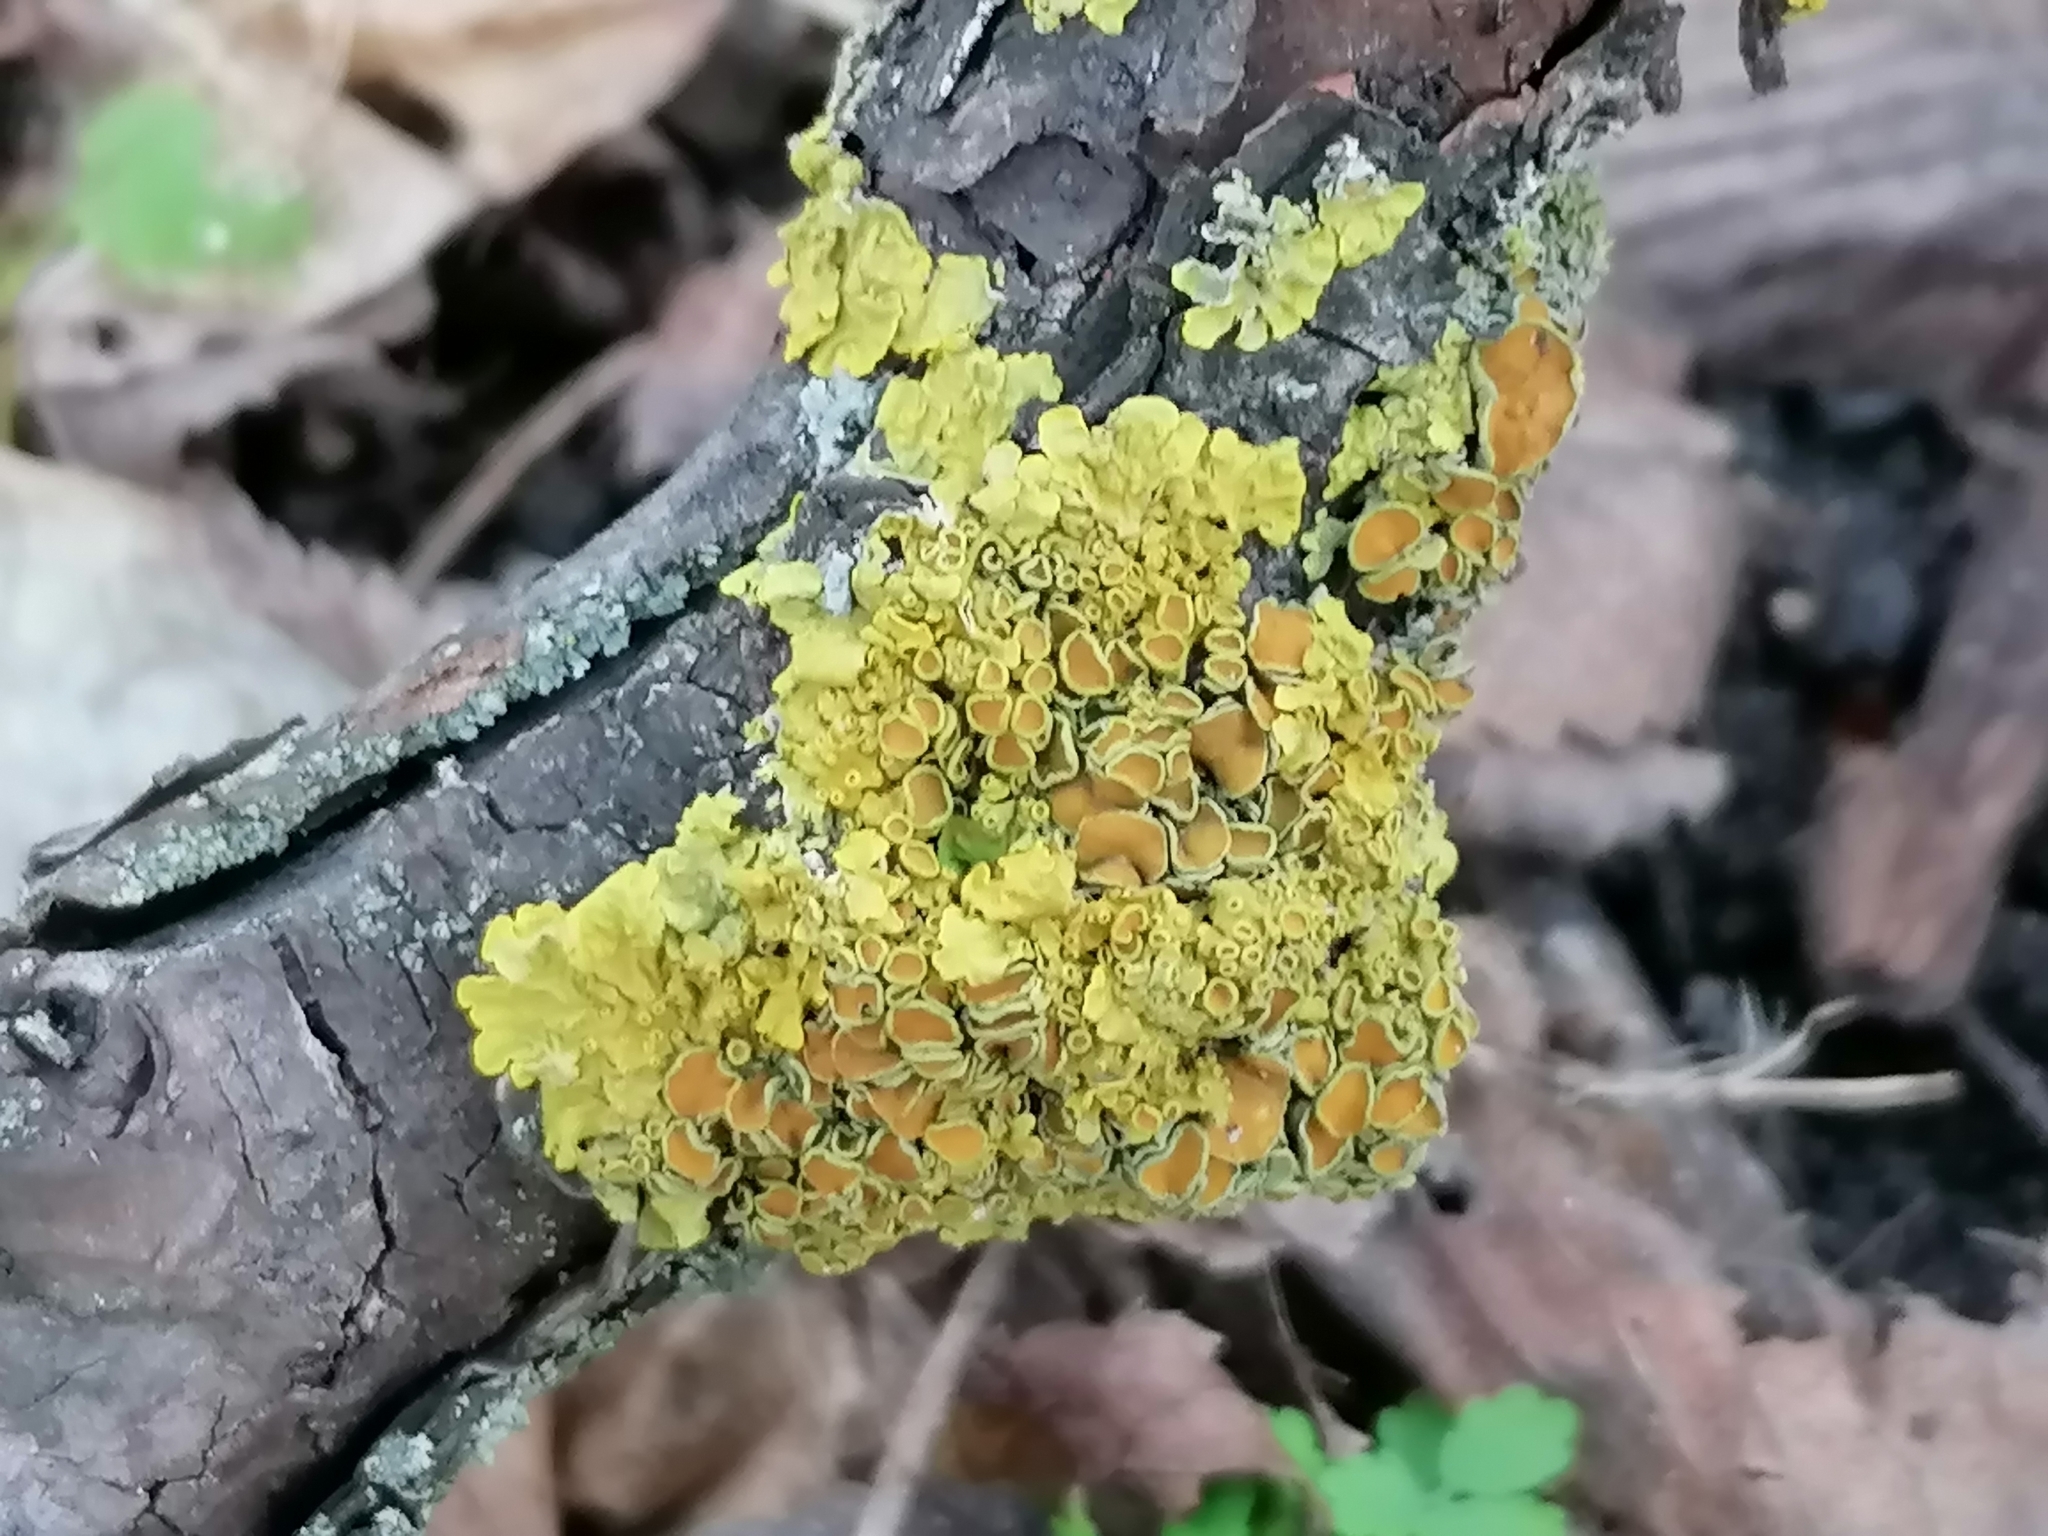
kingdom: Fungi
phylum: Ascomycota
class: Lecanoromycetes
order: Teloschistales
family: Teloschistaceae
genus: Xanthoria
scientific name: Xanthoria parietina
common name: Common orange lichen
